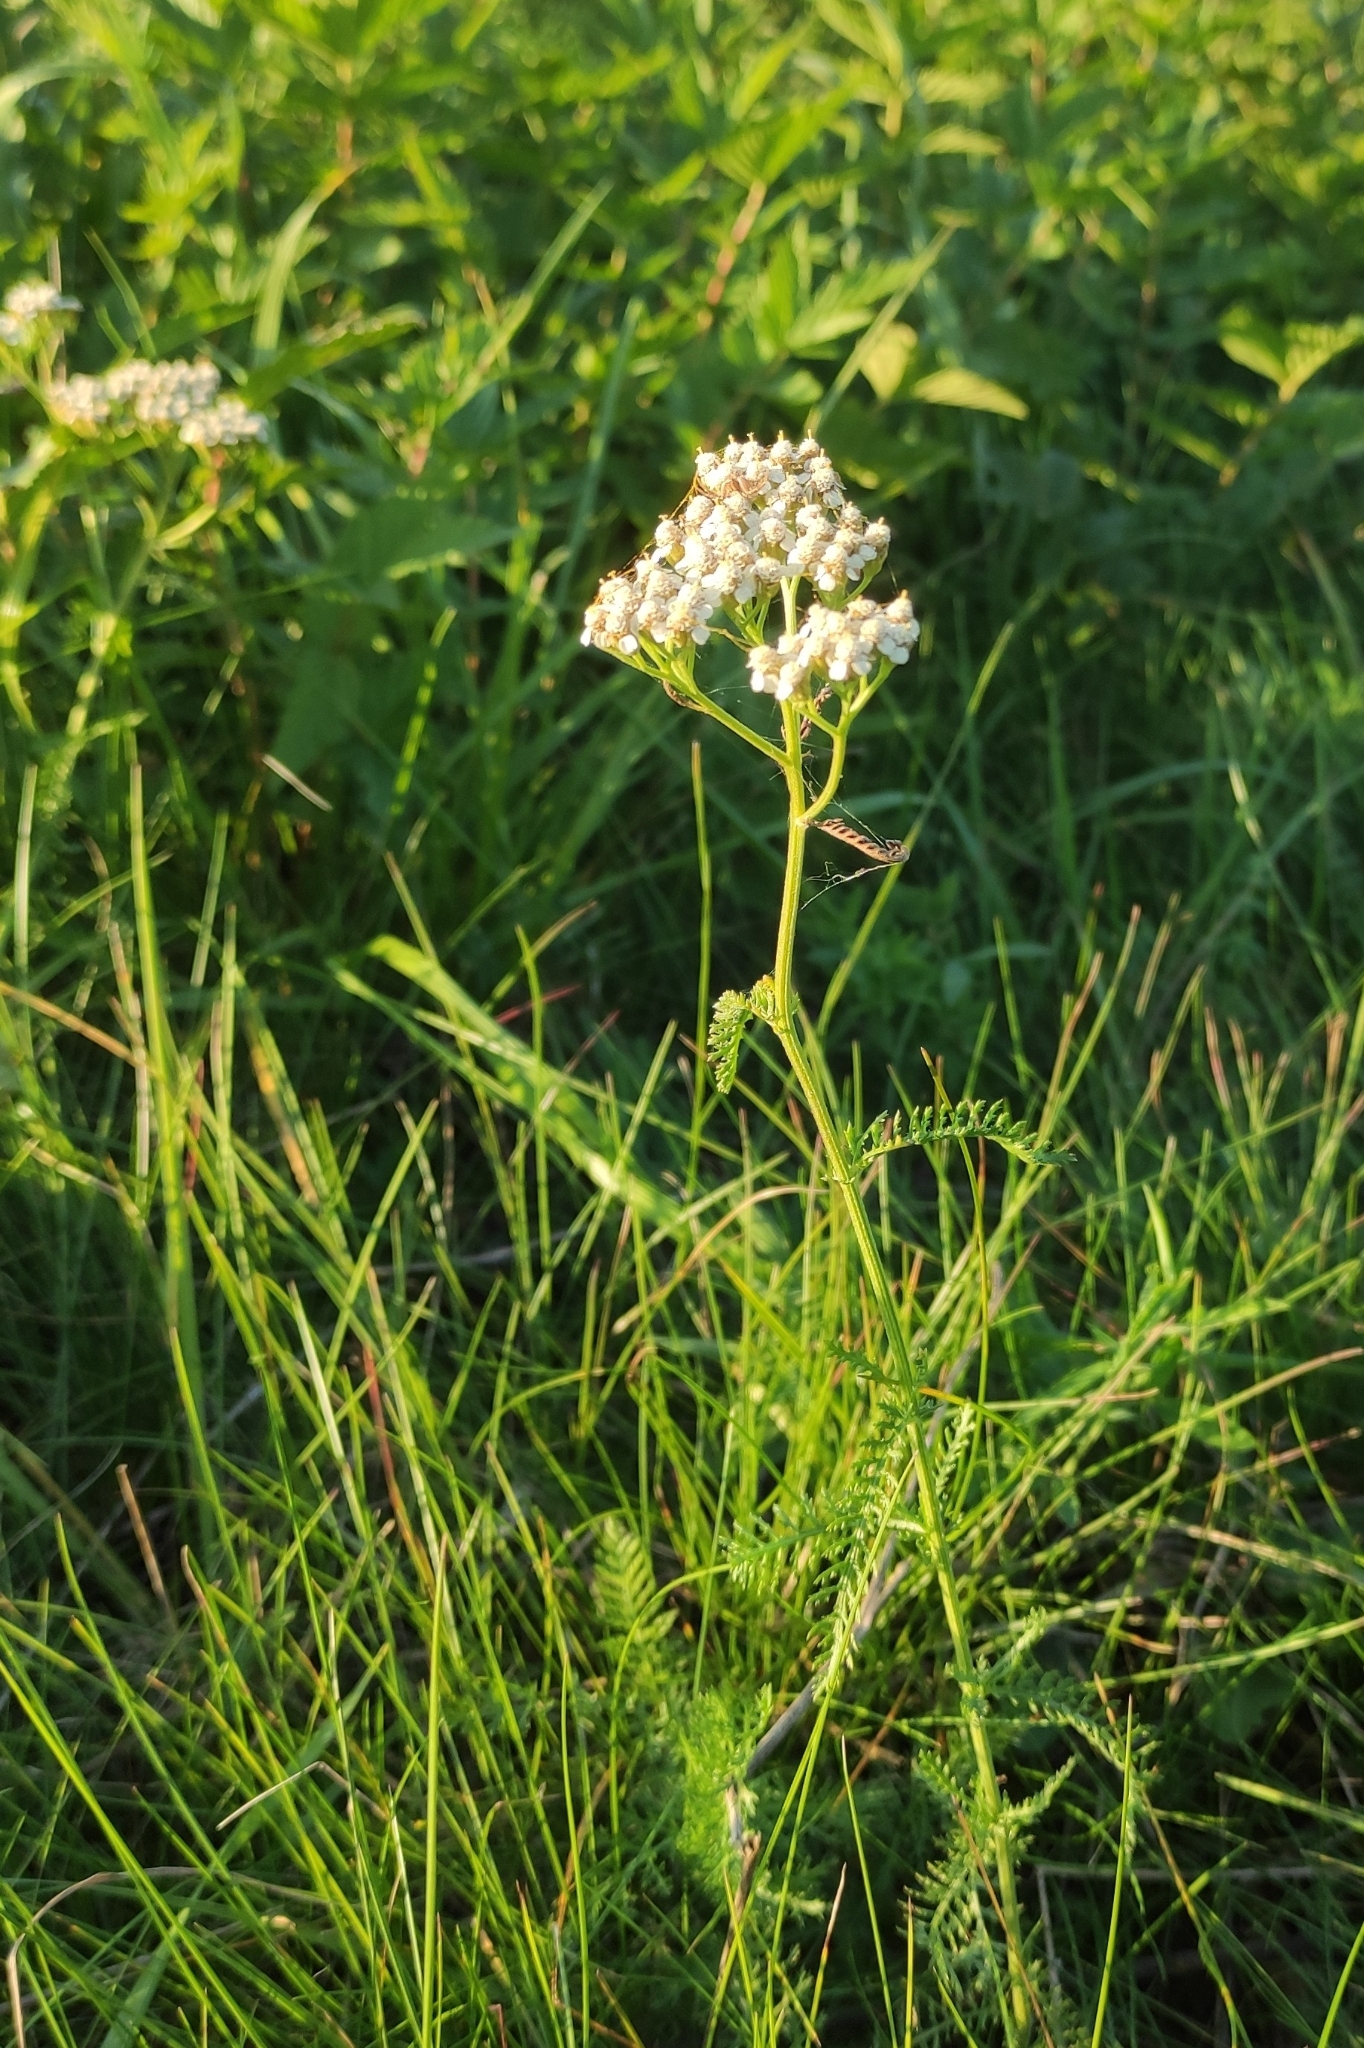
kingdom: Plantae
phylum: Tracheophyta
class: Magnoliopsida
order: Asterales
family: Asteraceae
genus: Achillea
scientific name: Achillea millefolium
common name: Yarrow
